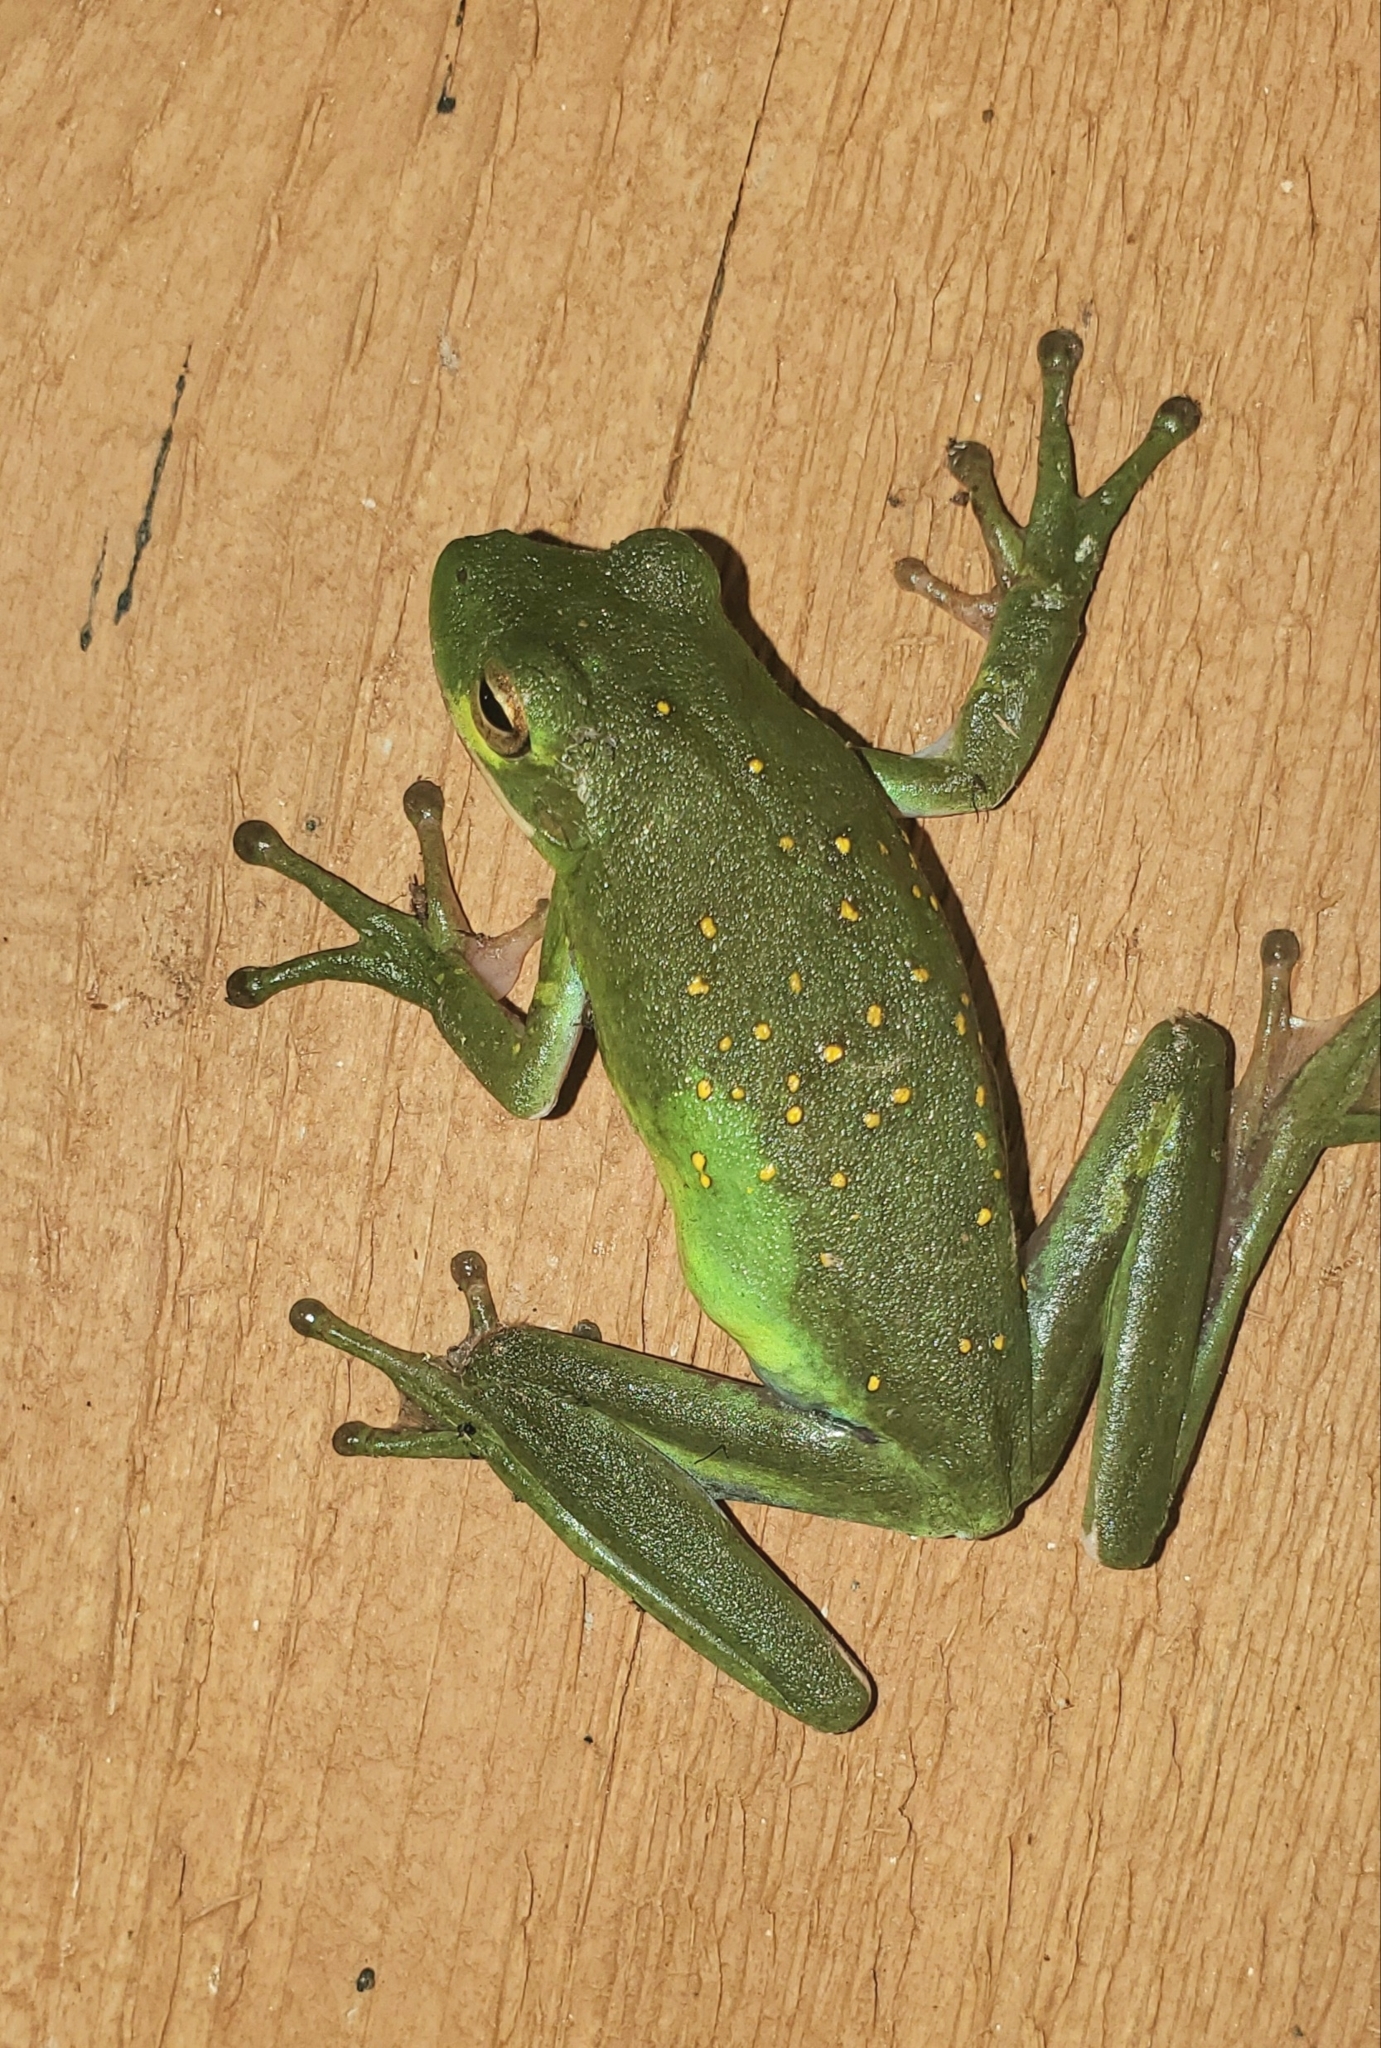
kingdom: Animalia
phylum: Chordata
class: Amphibia
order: Anura
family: Hylidae
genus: Dryophytes
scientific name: Dryophytes cinereus
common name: Green treefrog
